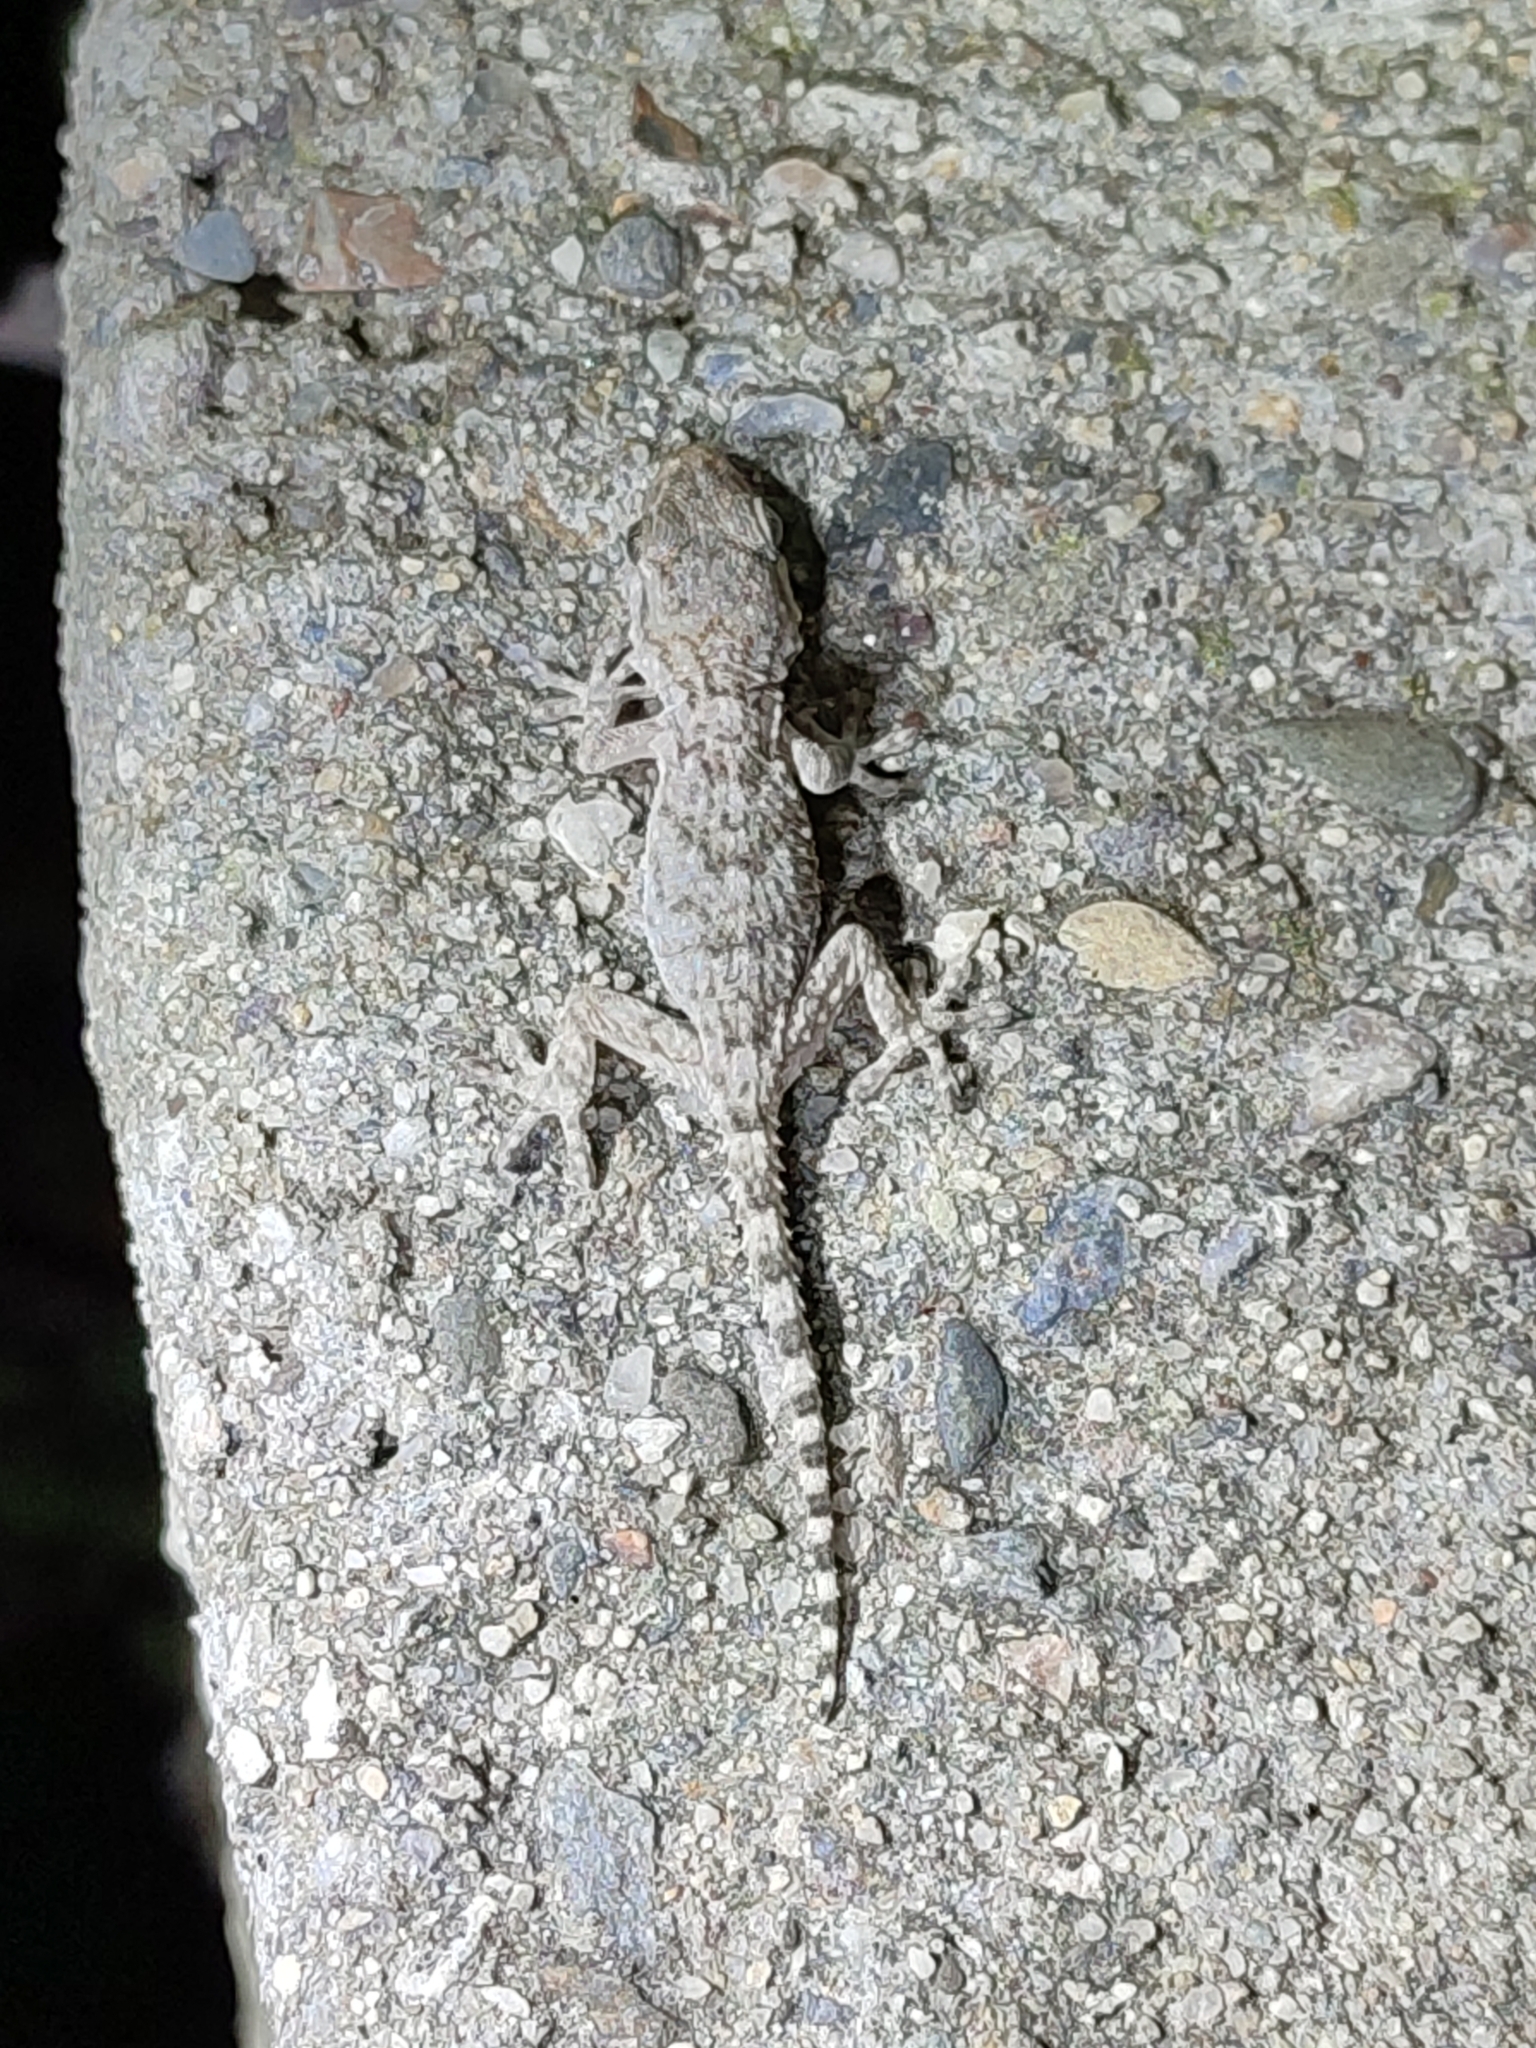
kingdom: Animalia
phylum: Chordata
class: Squamata
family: Phyllodactylidae
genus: Tarentola
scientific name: Tarentola mauritanica
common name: Moorish gecko
